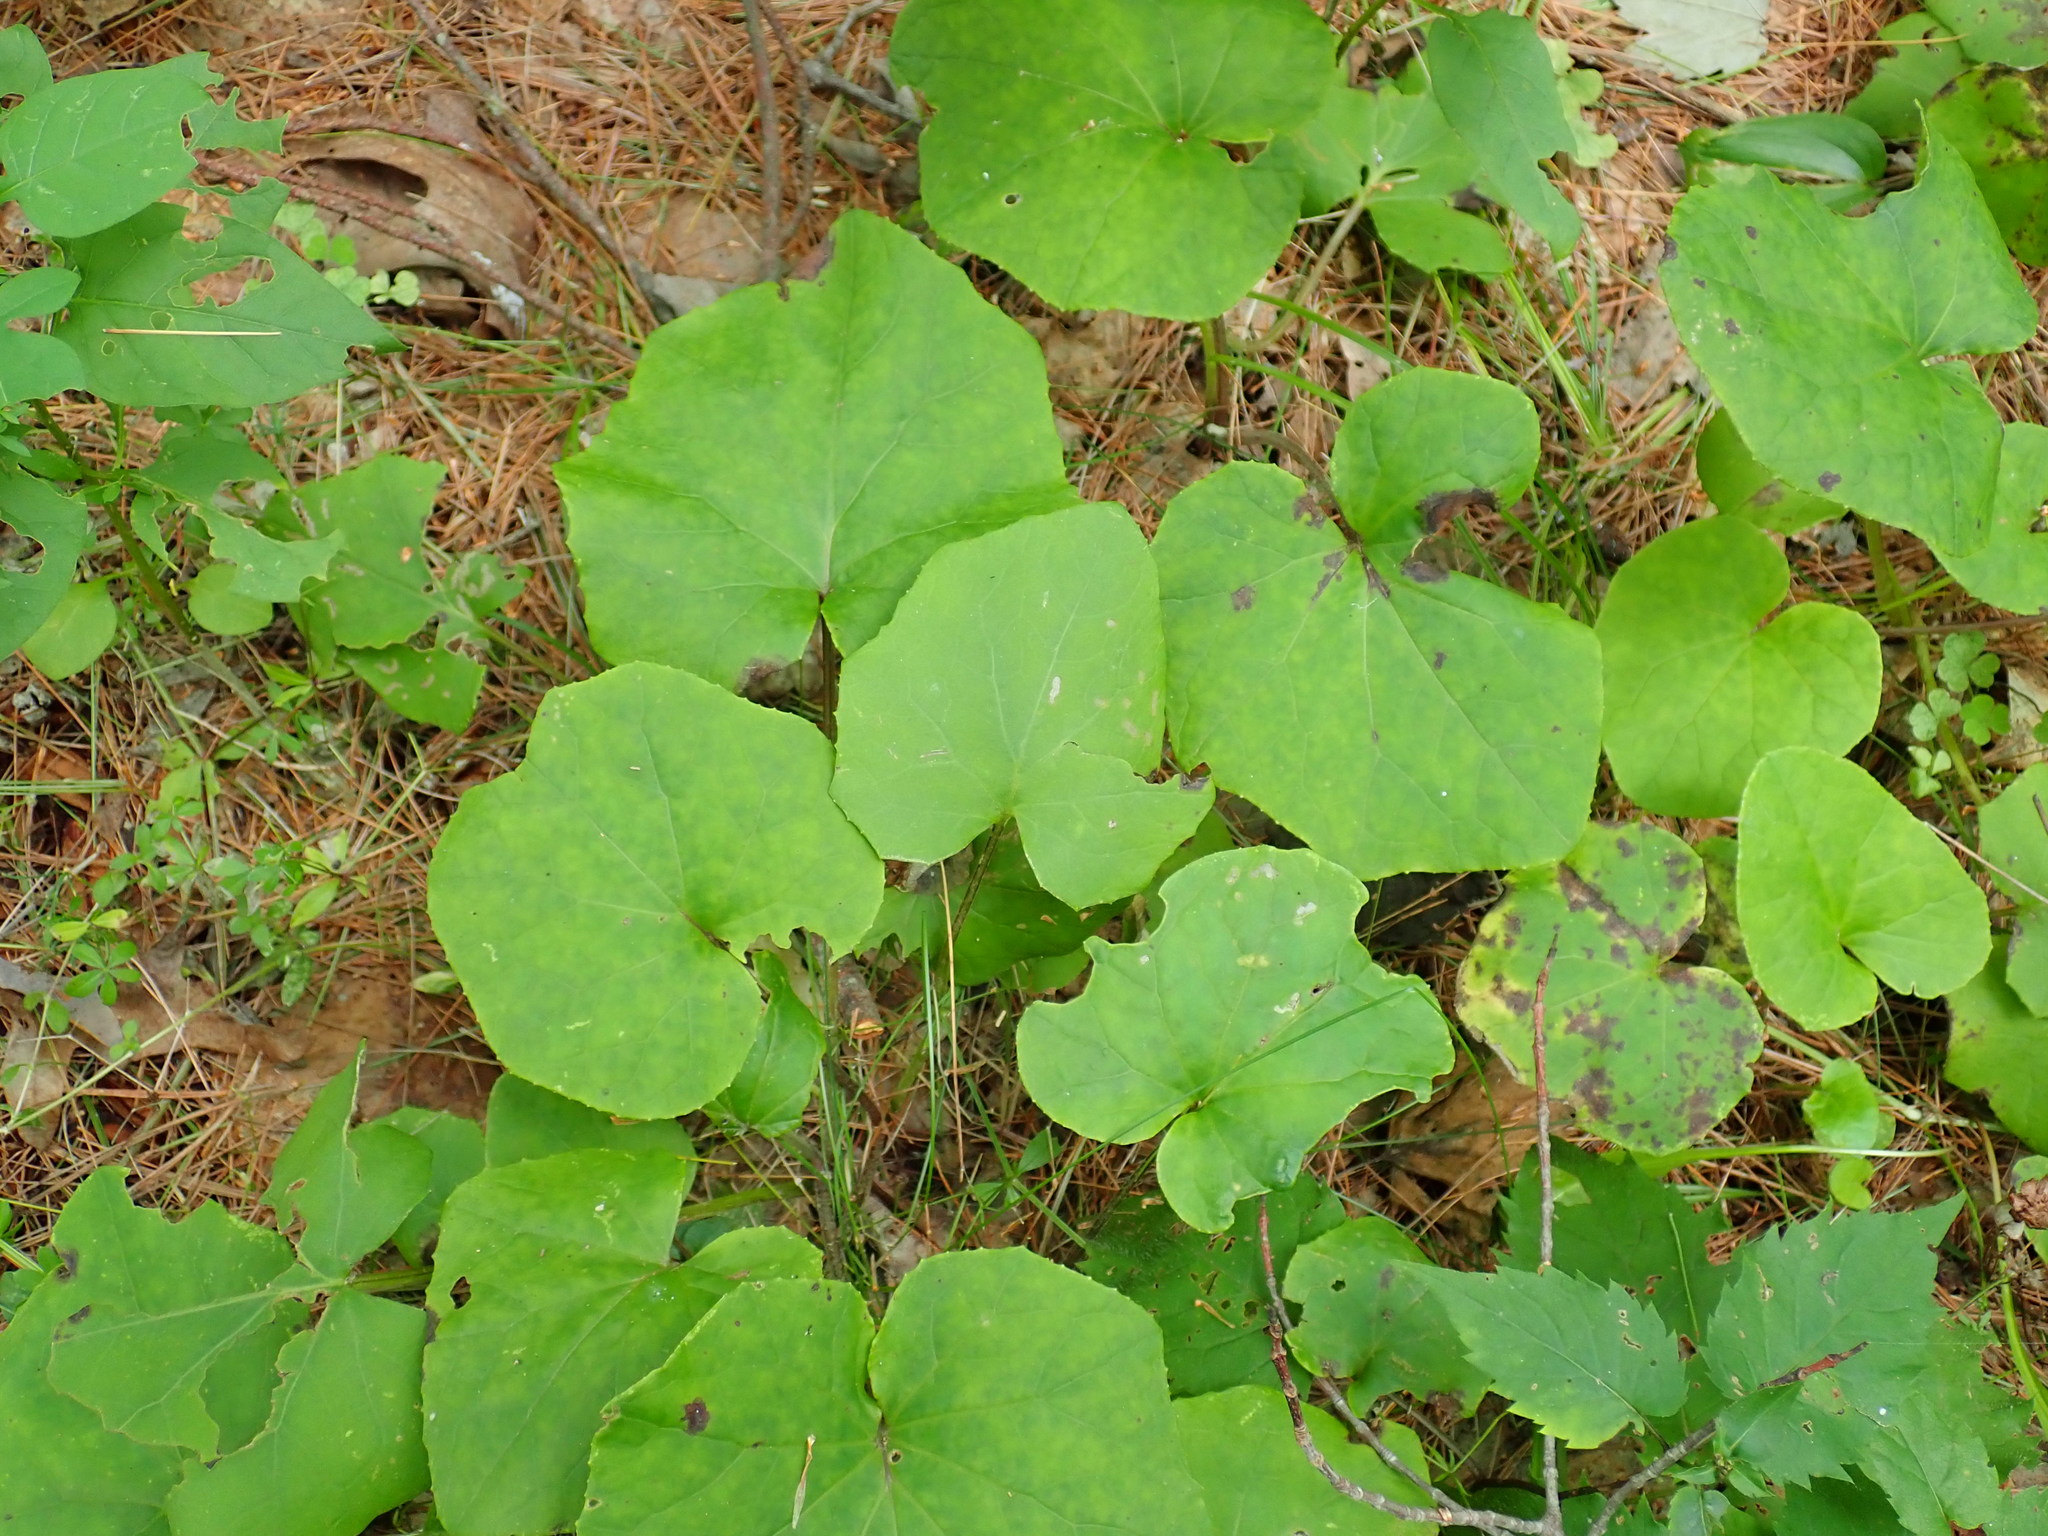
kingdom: Plantae
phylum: Tracheophyta
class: Magnoliopsida
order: Asterales
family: Asteraceae
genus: Tussilago
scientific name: Tussilago farfara
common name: Coltsfoot
